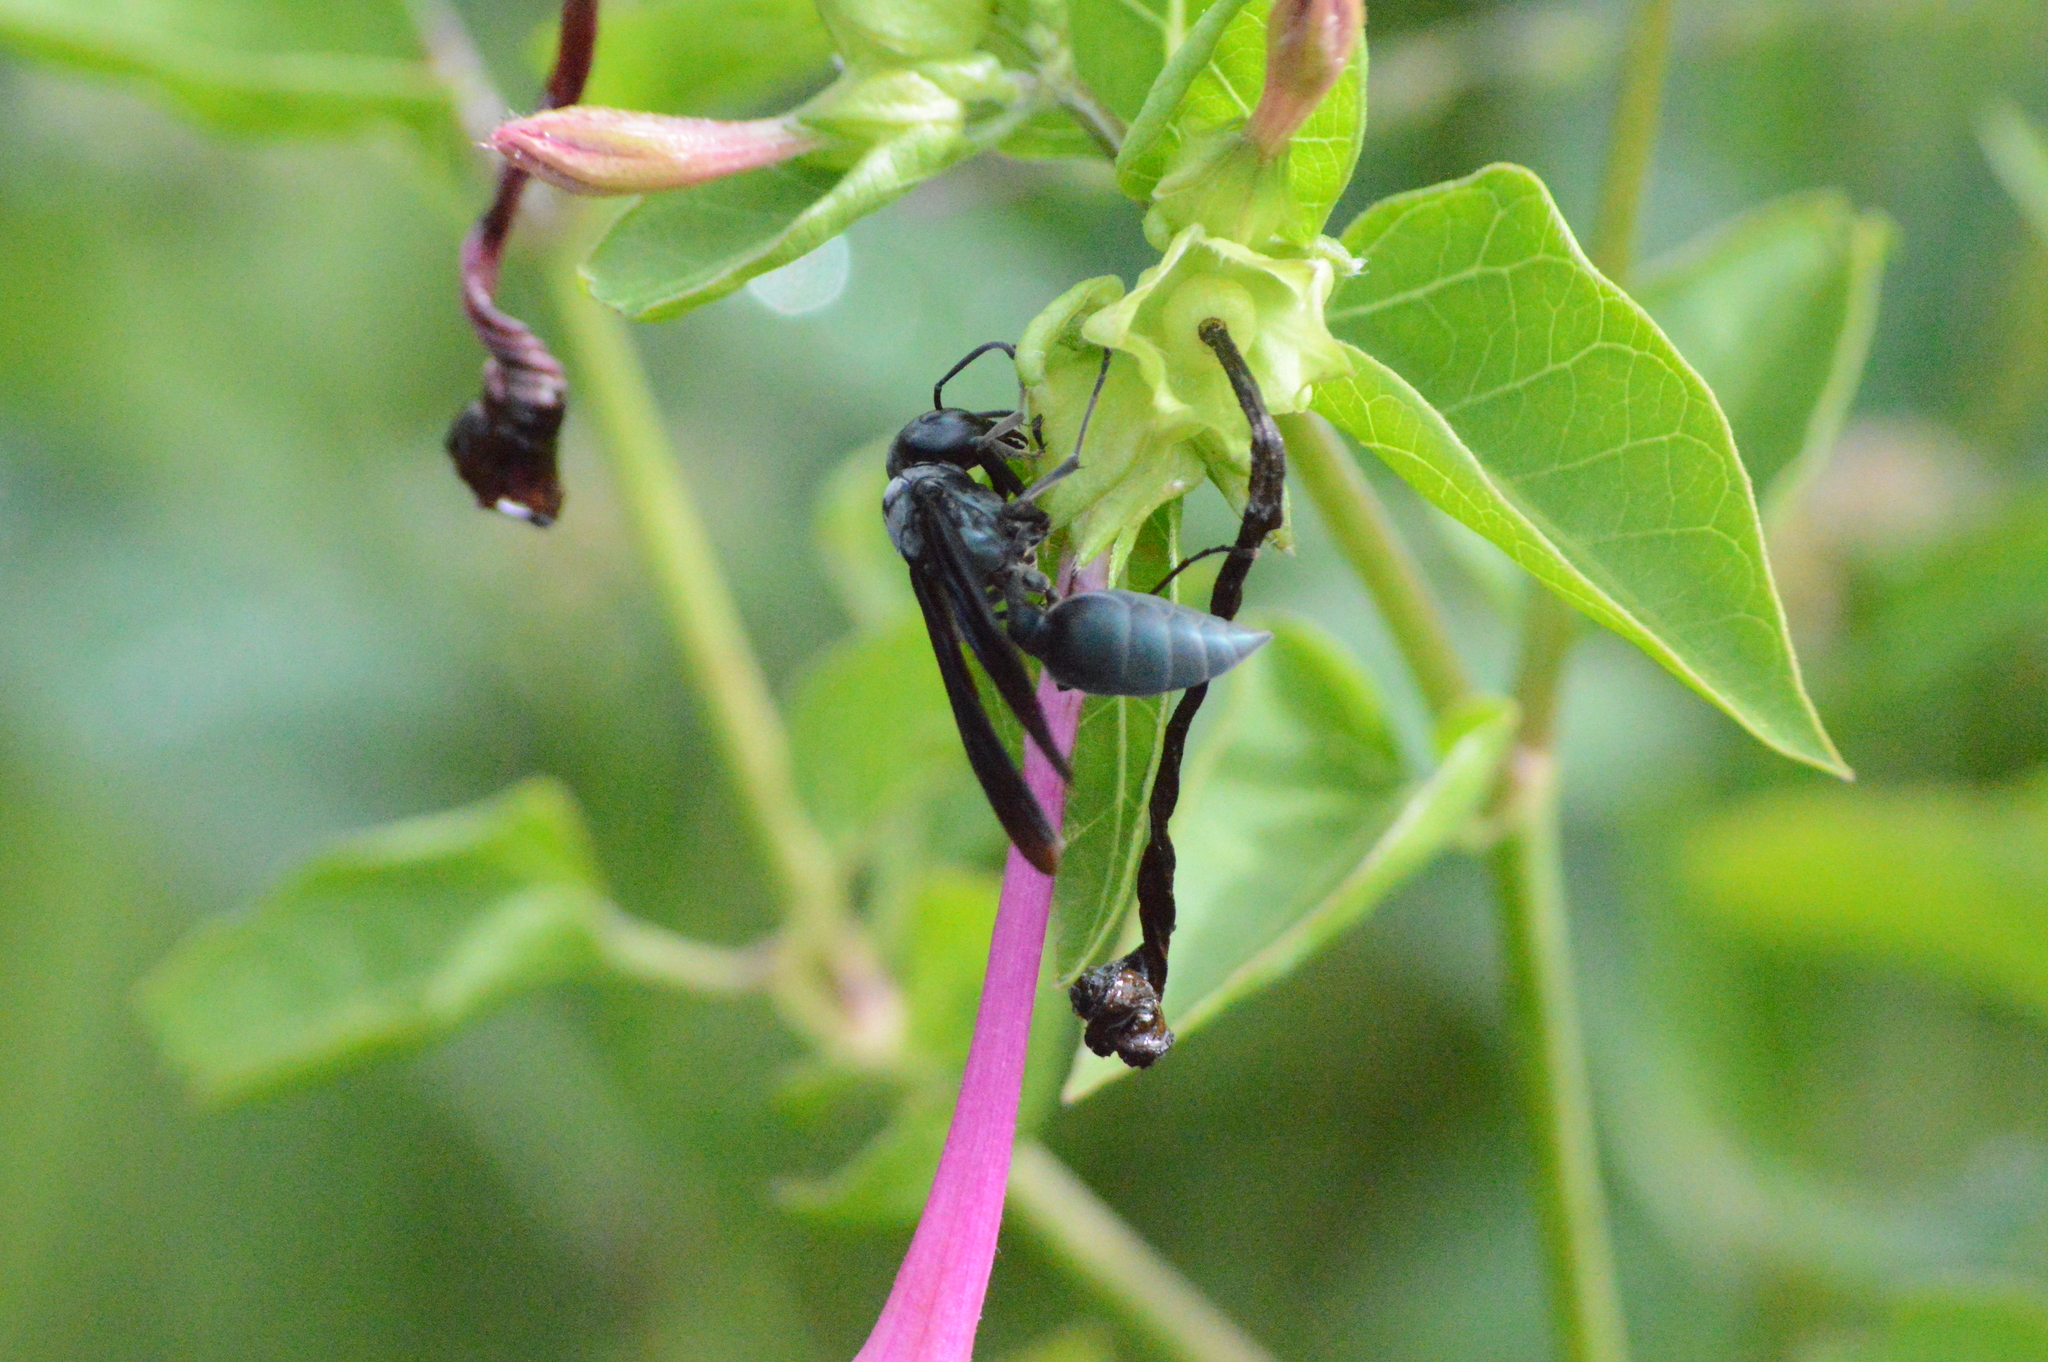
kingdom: Animalia
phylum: Arthropoda
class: Insecta
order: Hymenoptera
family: Vespidae
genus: Synoeca
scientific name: Synoeca surinama
